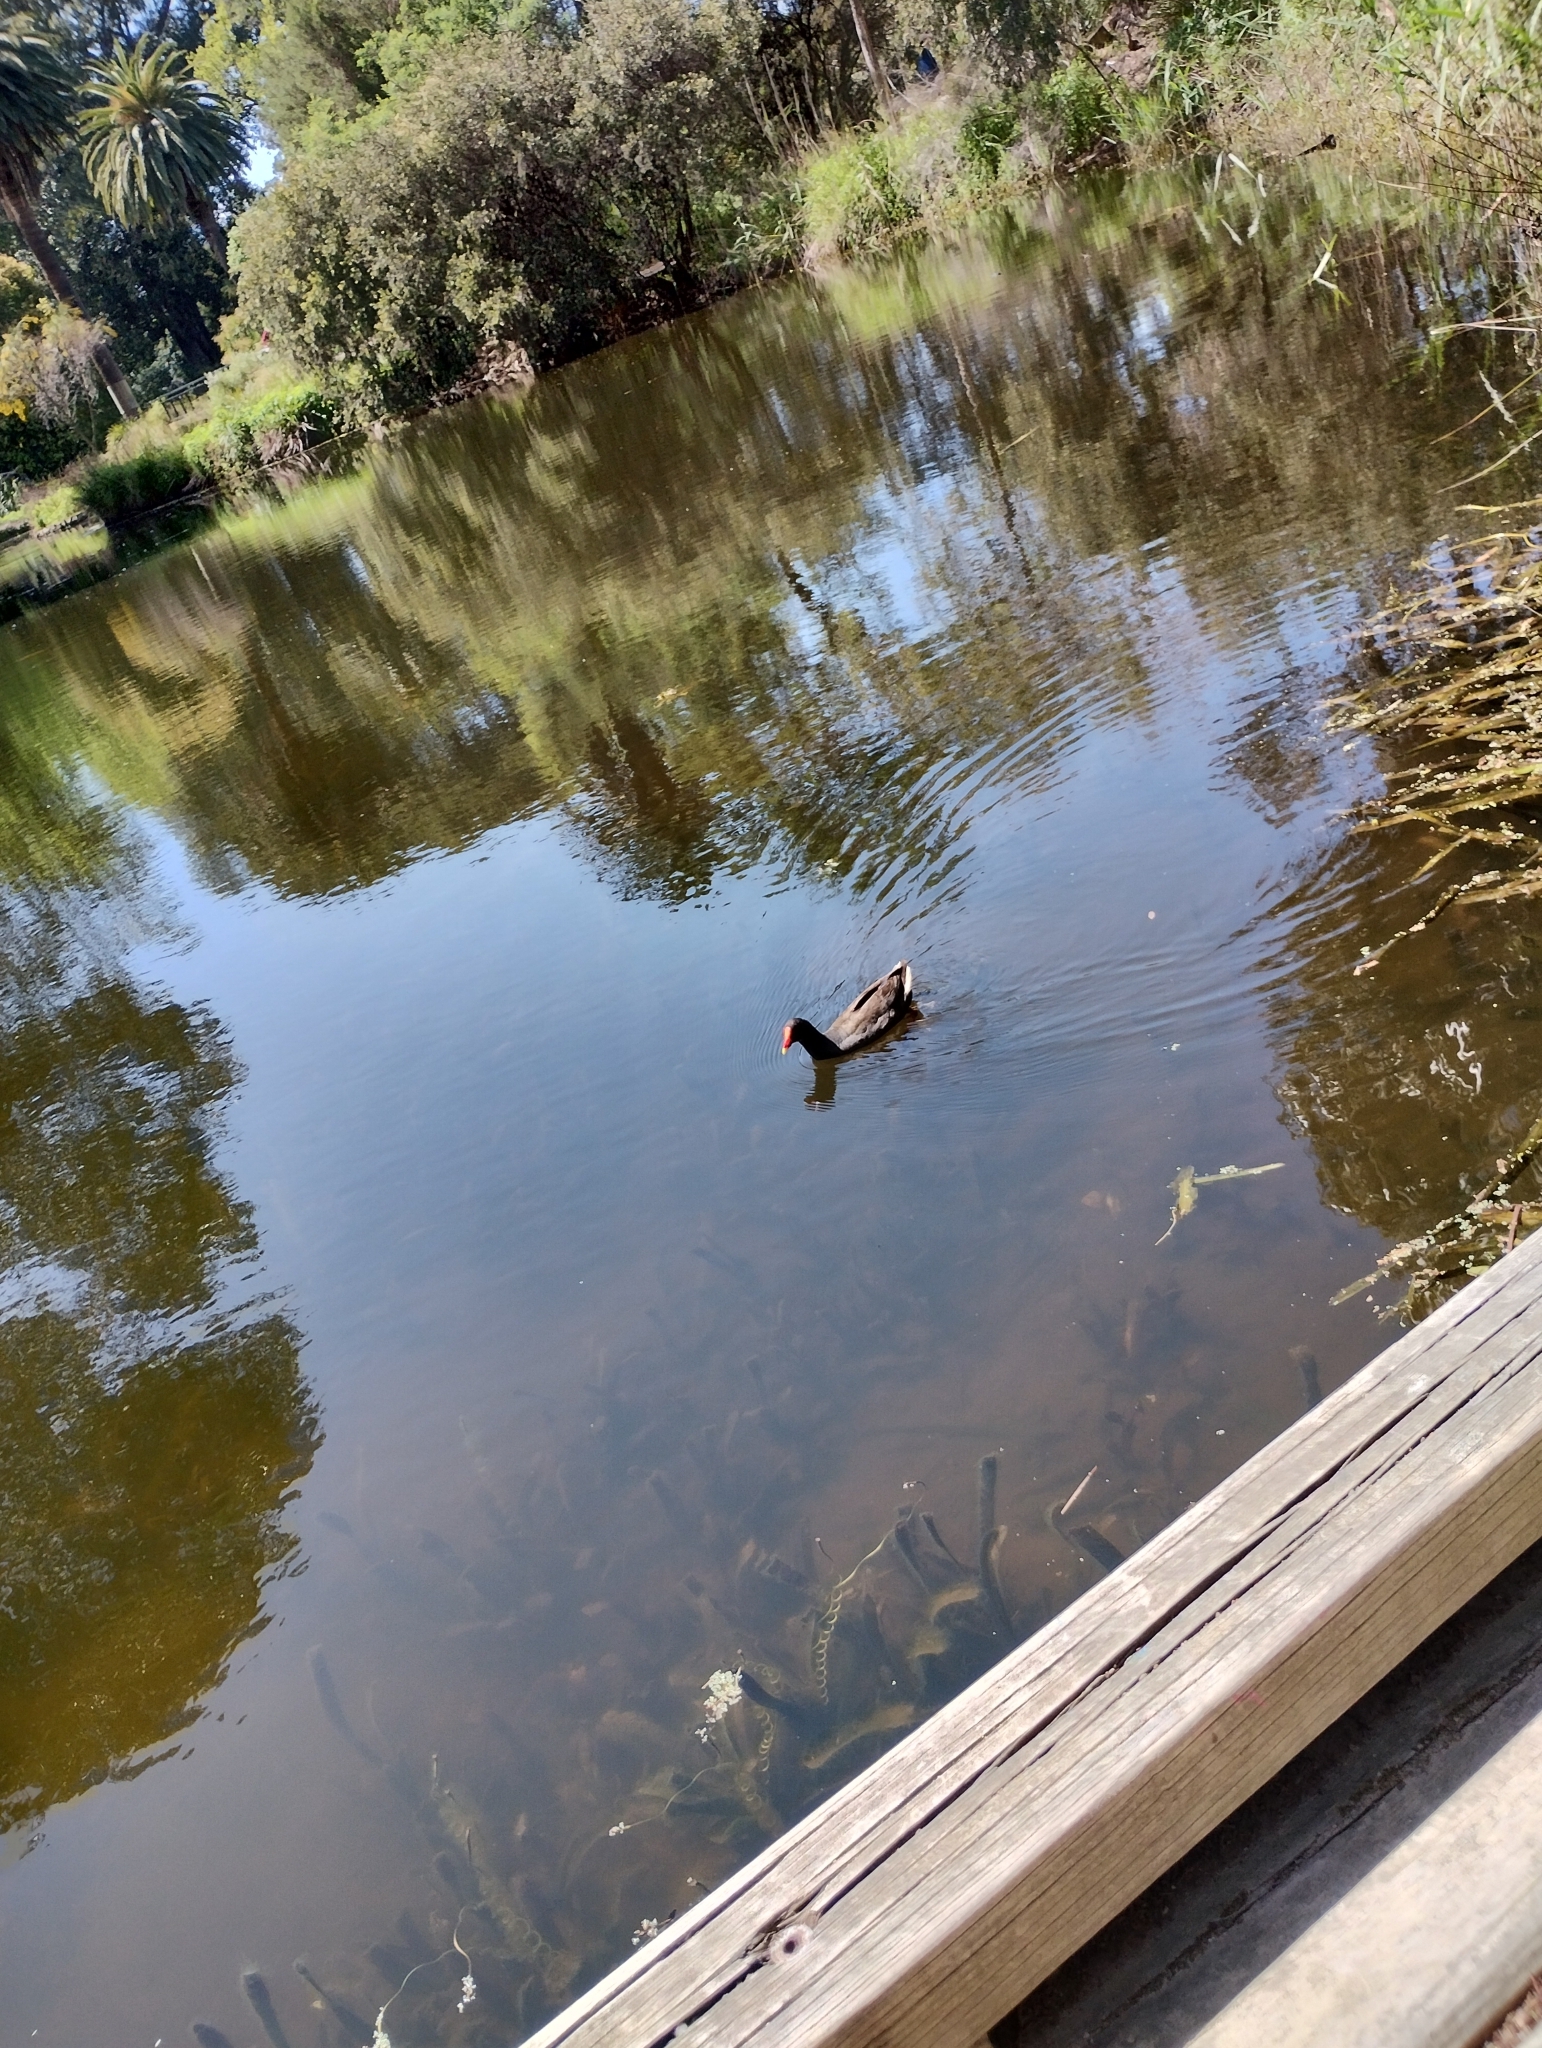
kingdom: Animalia
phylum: Chordata
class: Aves
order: Gruiformes
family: Rallidae
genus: Gallinula
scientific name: Gallinula tenebrosa
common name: Dusky moorhen
